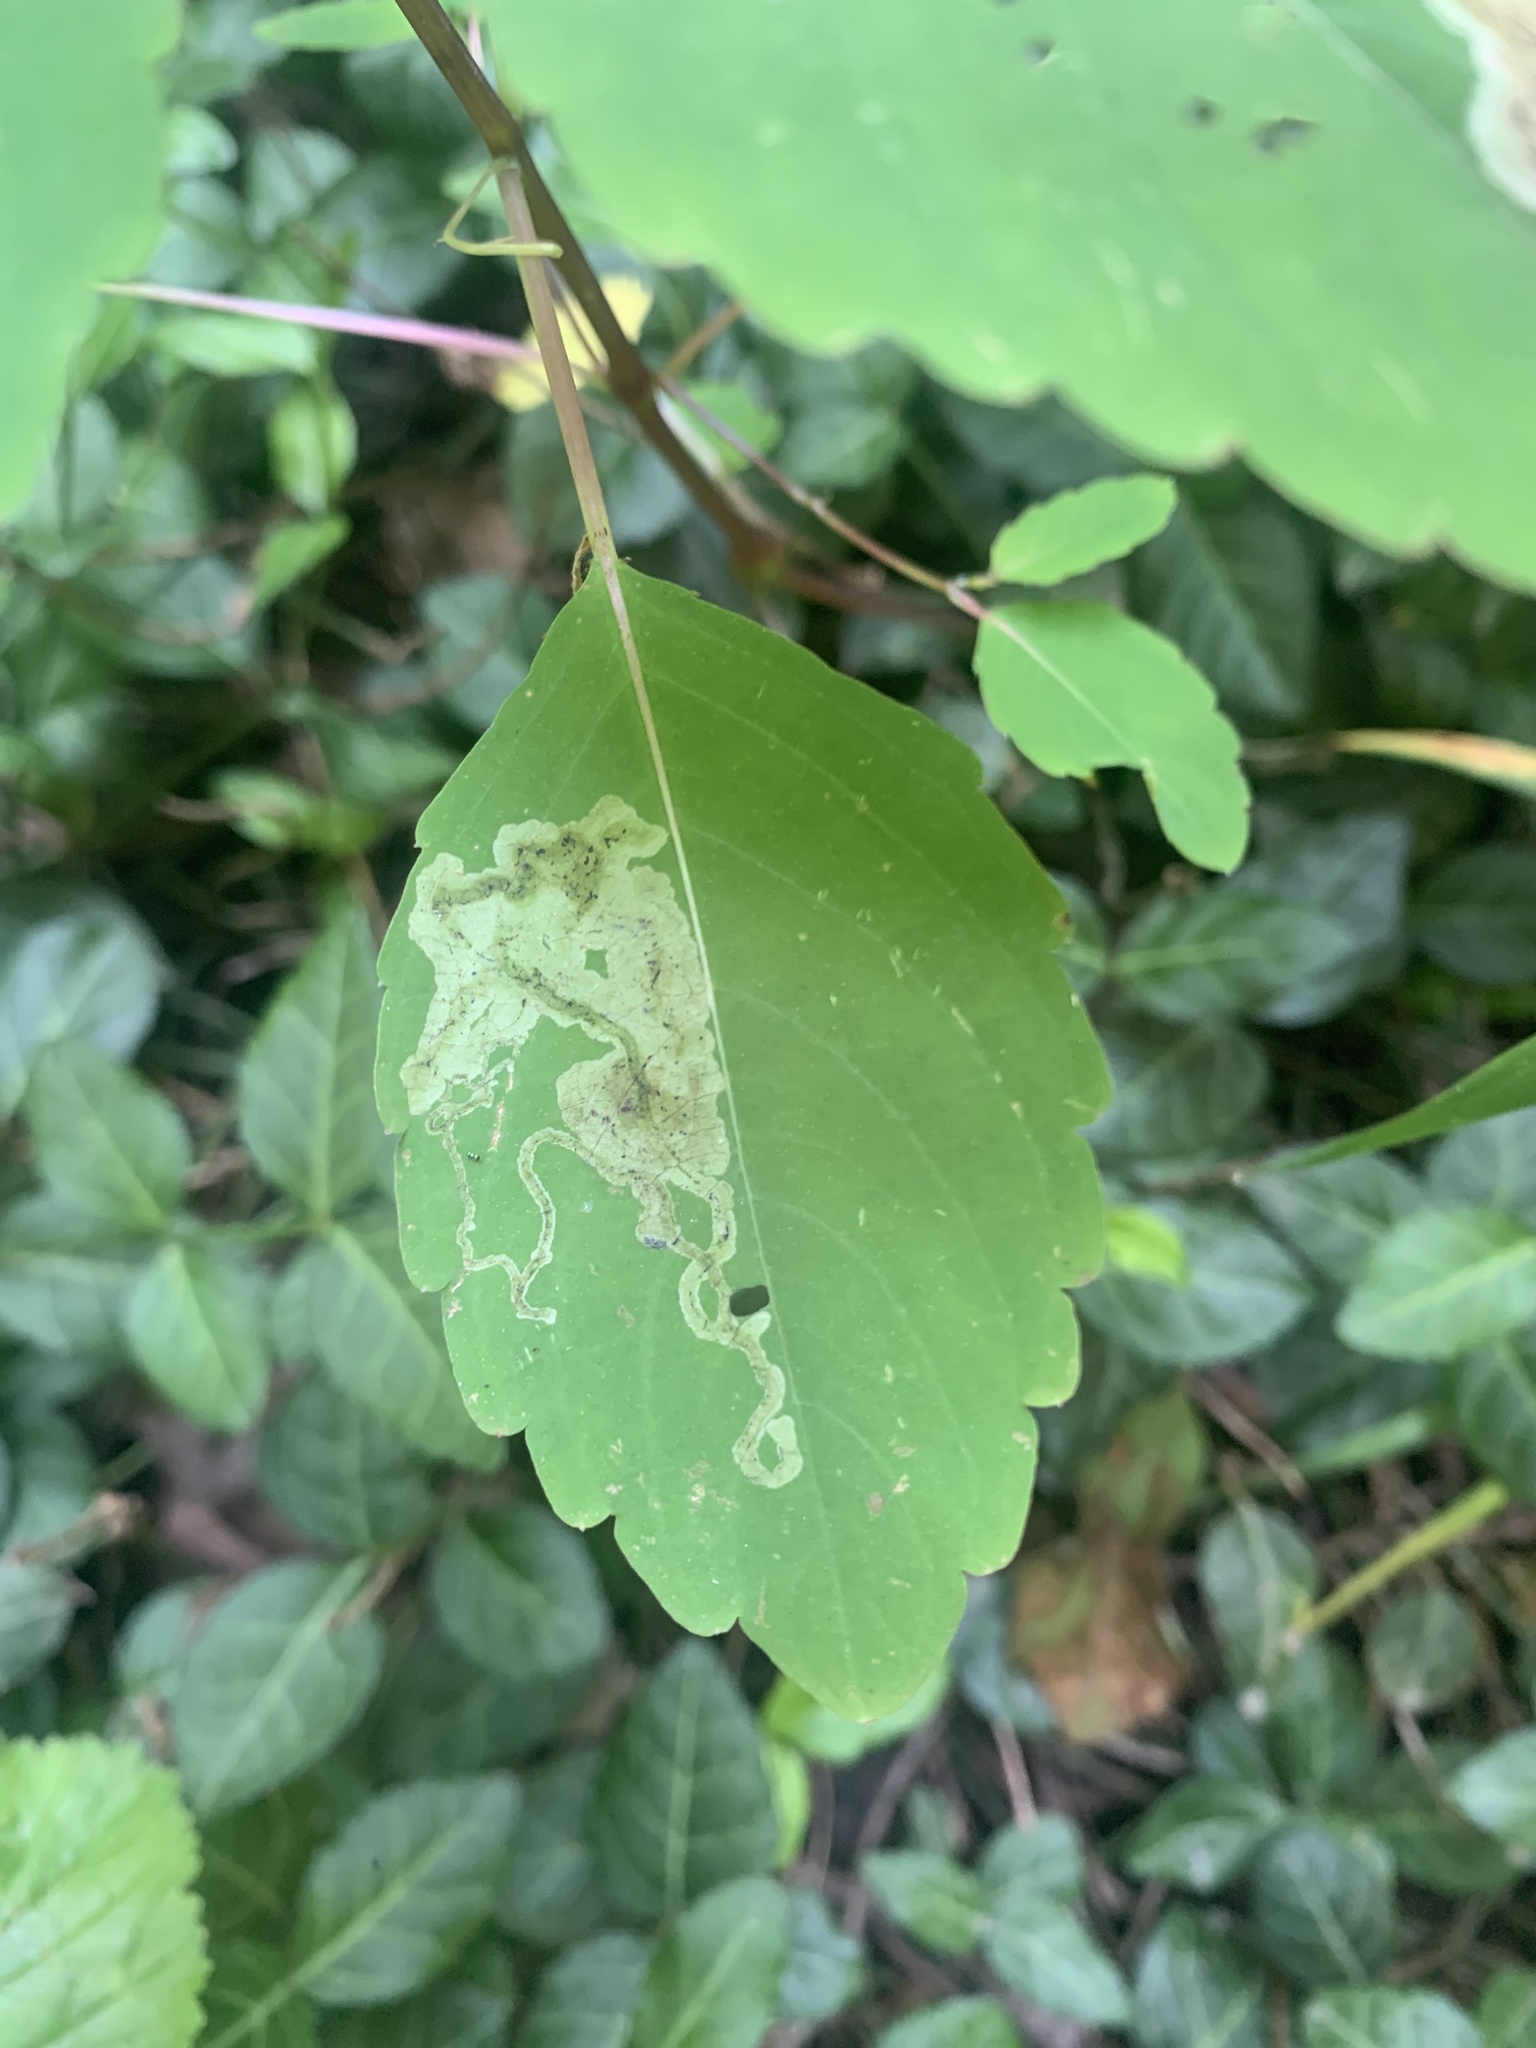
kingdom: Animalia
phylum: Arthropoda
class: Insecta
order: Diptera
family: Agromyzidae
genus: Phytoliriomyza
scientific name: Phytoliriomyza melampyga
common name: Jewelweed leaf-miner fly
